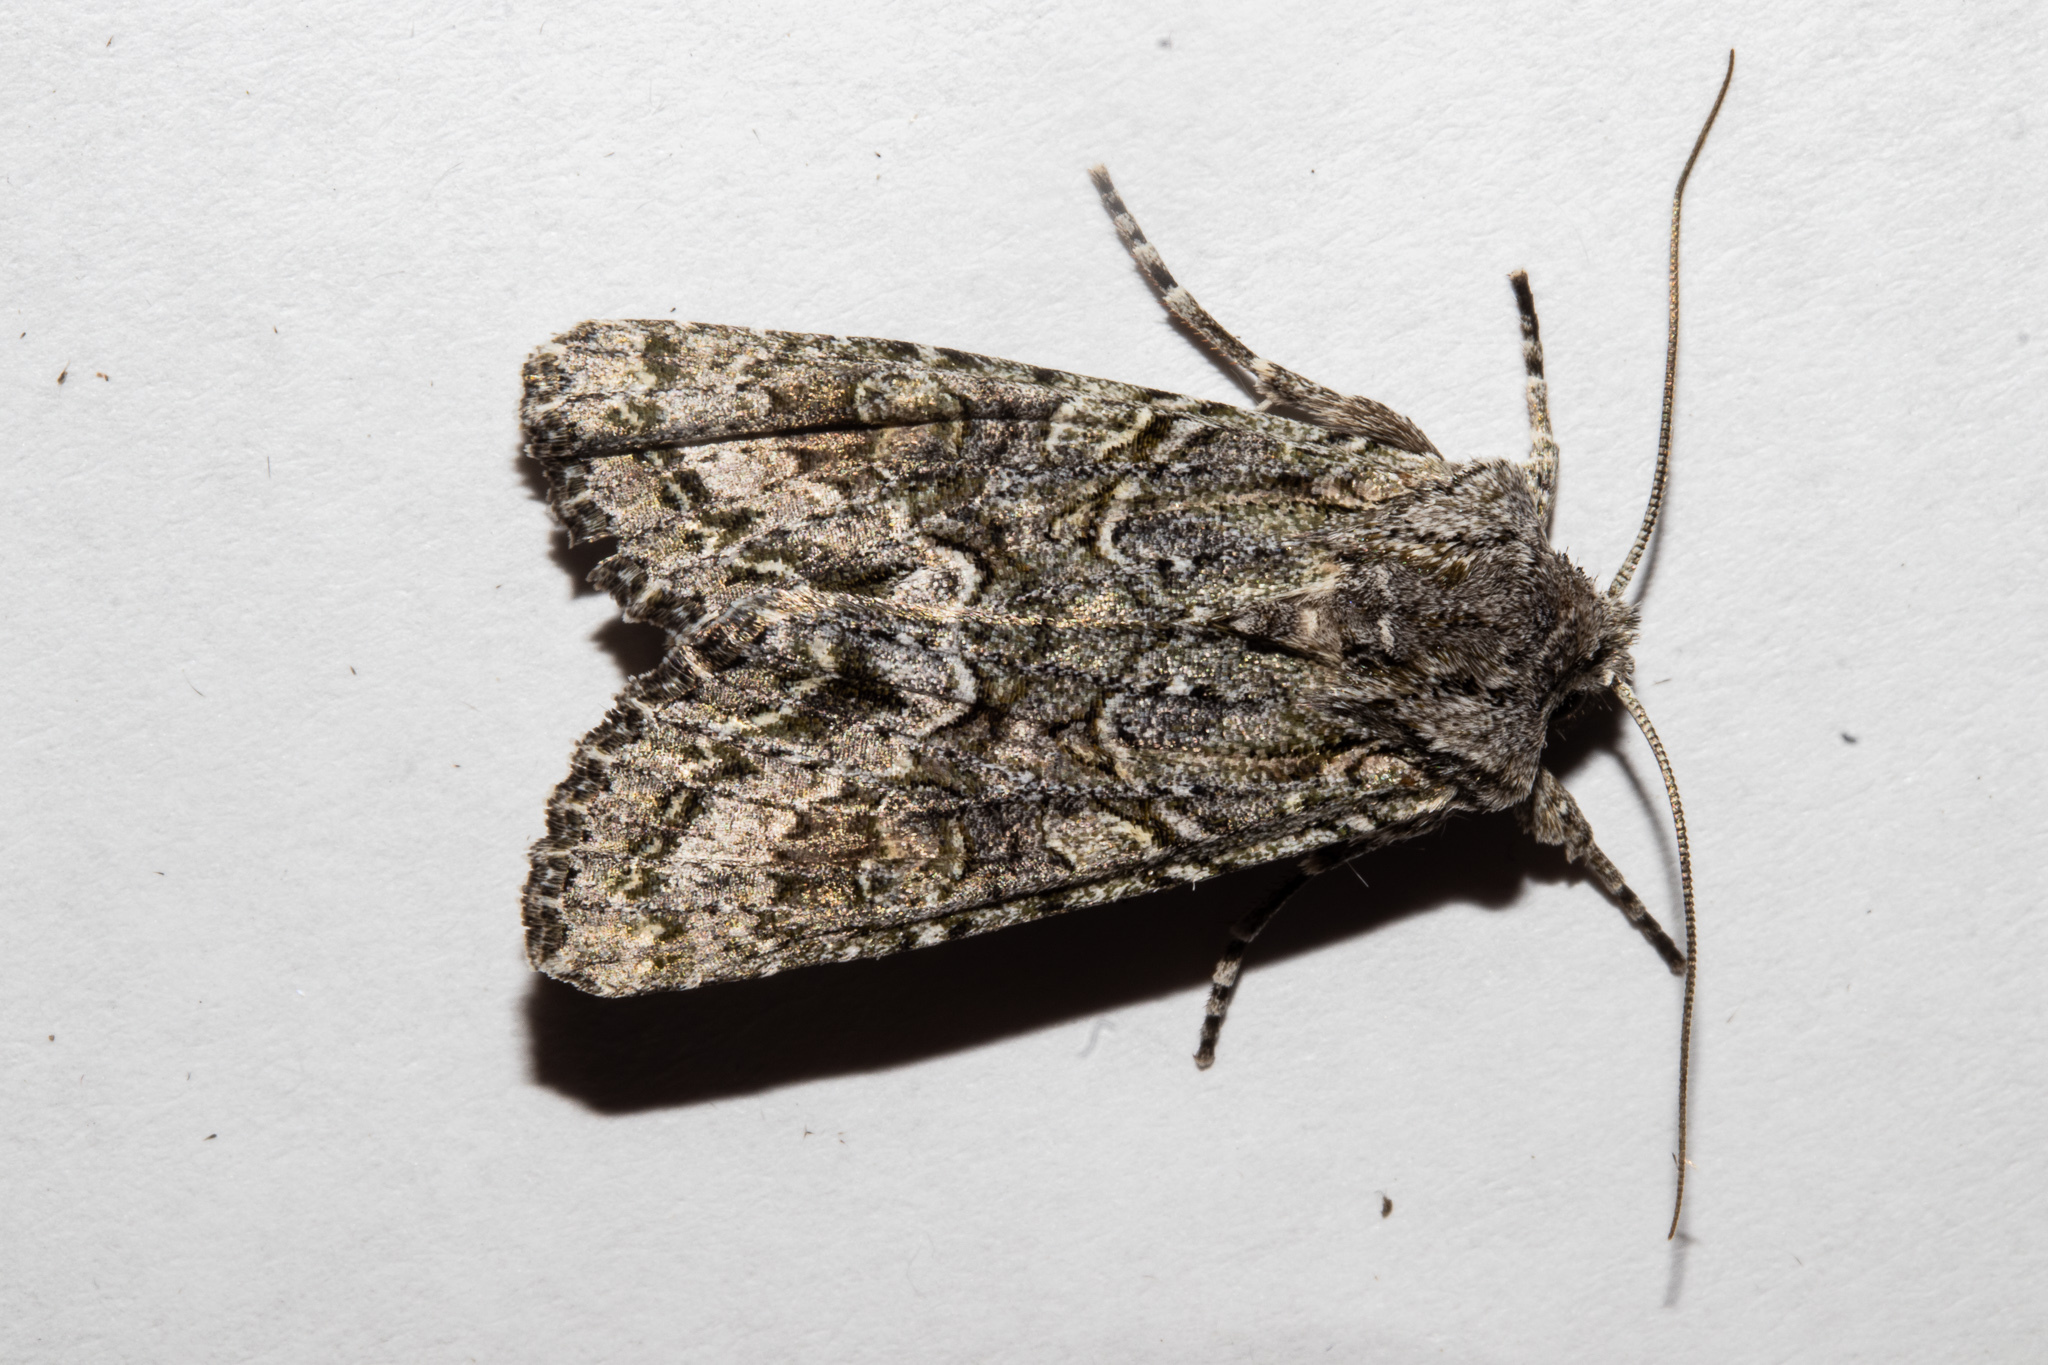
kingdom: Animalia
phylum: Arthropoda
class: Insecta
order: Lepidoptera
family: Noctuidae
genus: Ichneutica
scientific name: Ichneutica mutans
